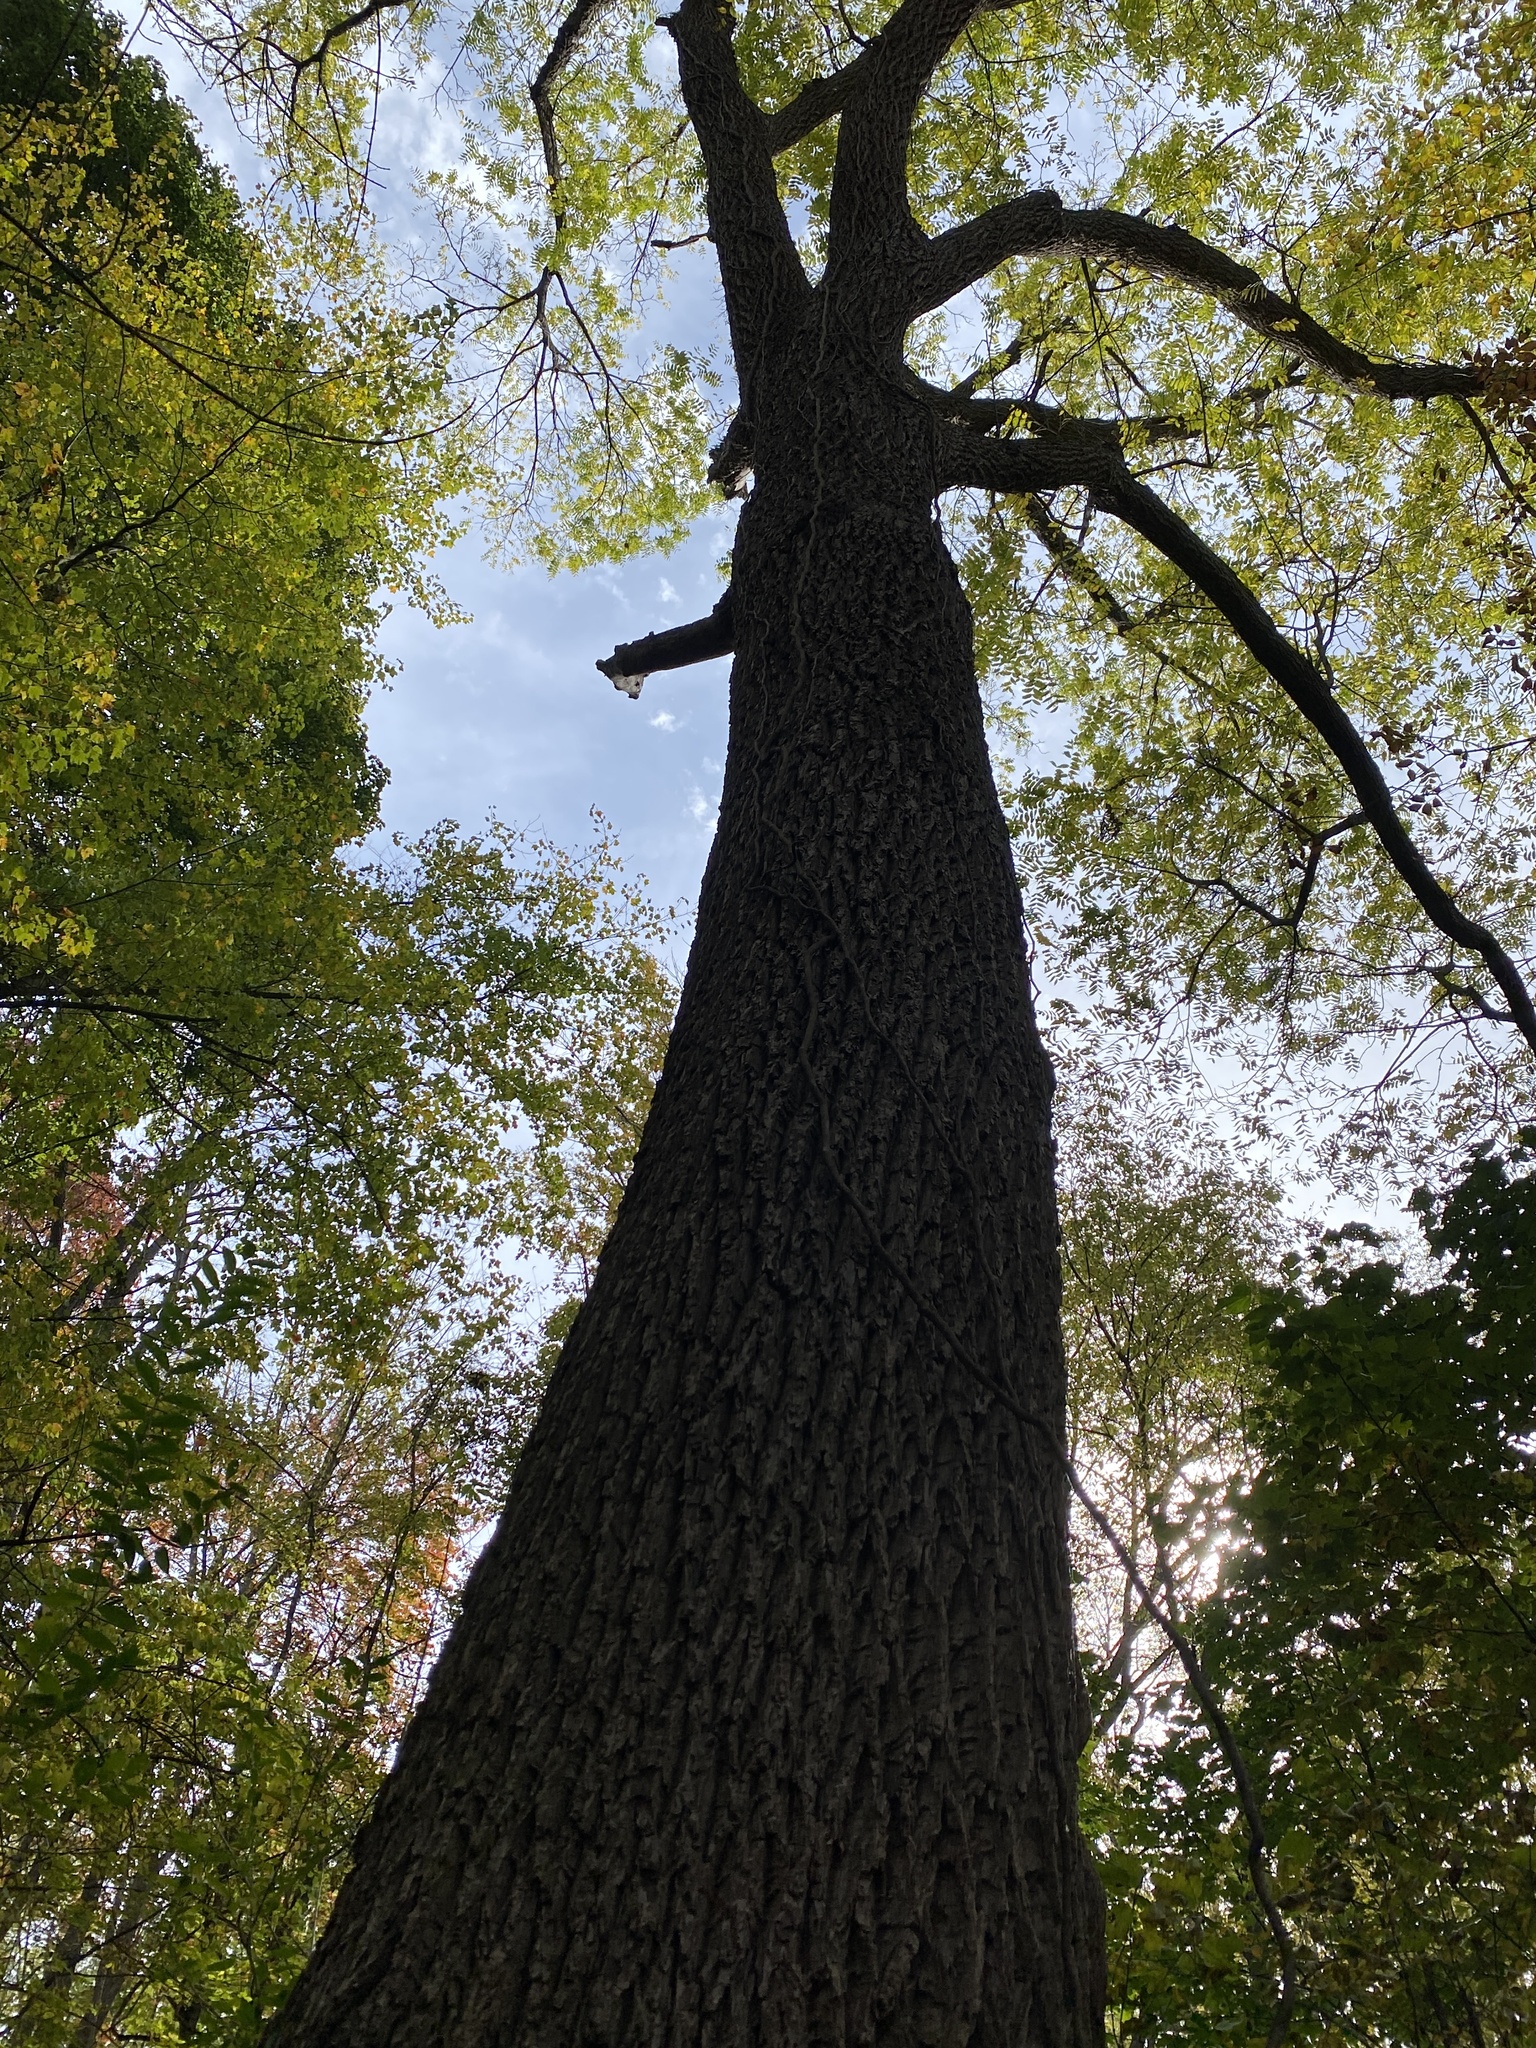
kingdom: Plantae
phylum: Tracheophyta
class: Magnoliopsida
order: Fagales
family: Juglandaceae
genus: Juglans
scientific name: Juglans nigra
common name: Black walnut
